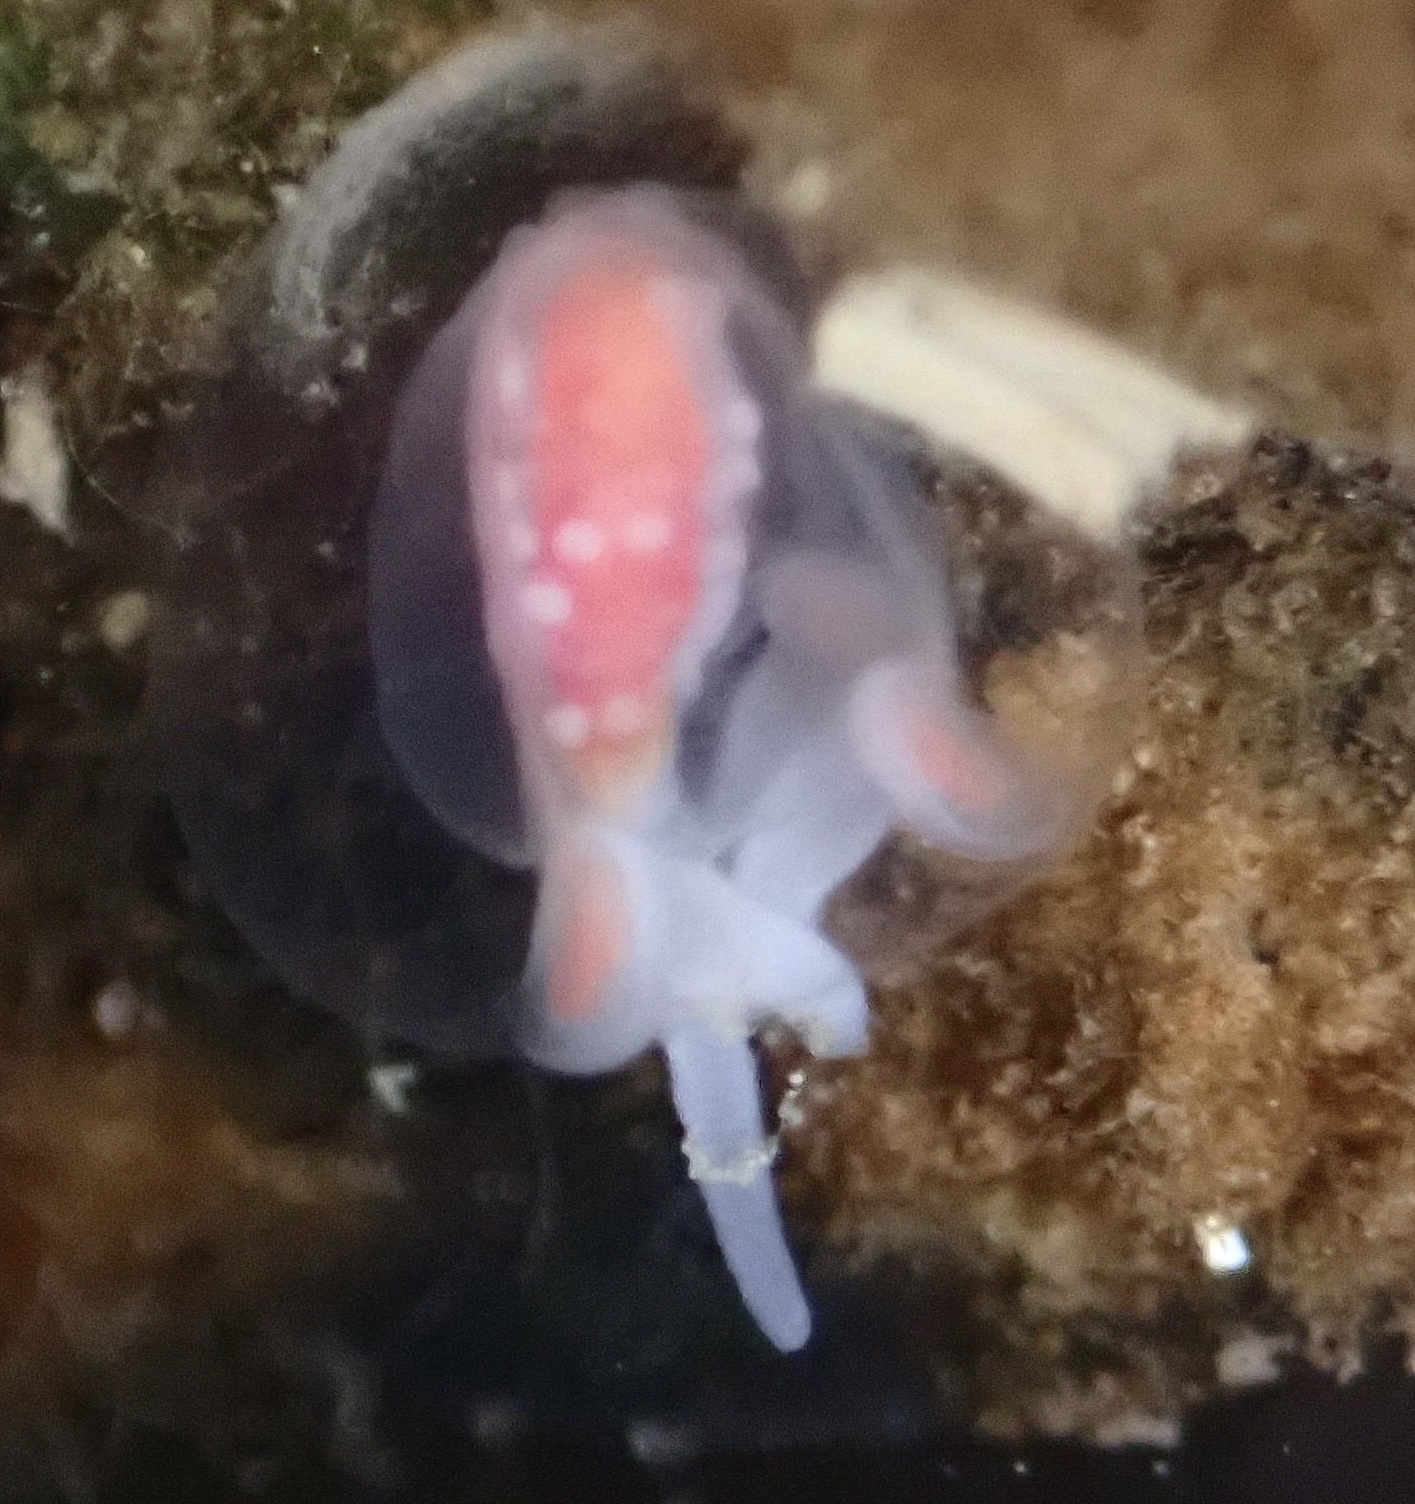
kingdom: Animalia
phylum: Cnidaria
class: Hydrozoa
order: Anthoathecata
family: Corymorphidae
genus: Euphysa
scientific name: Euphysa flammea
